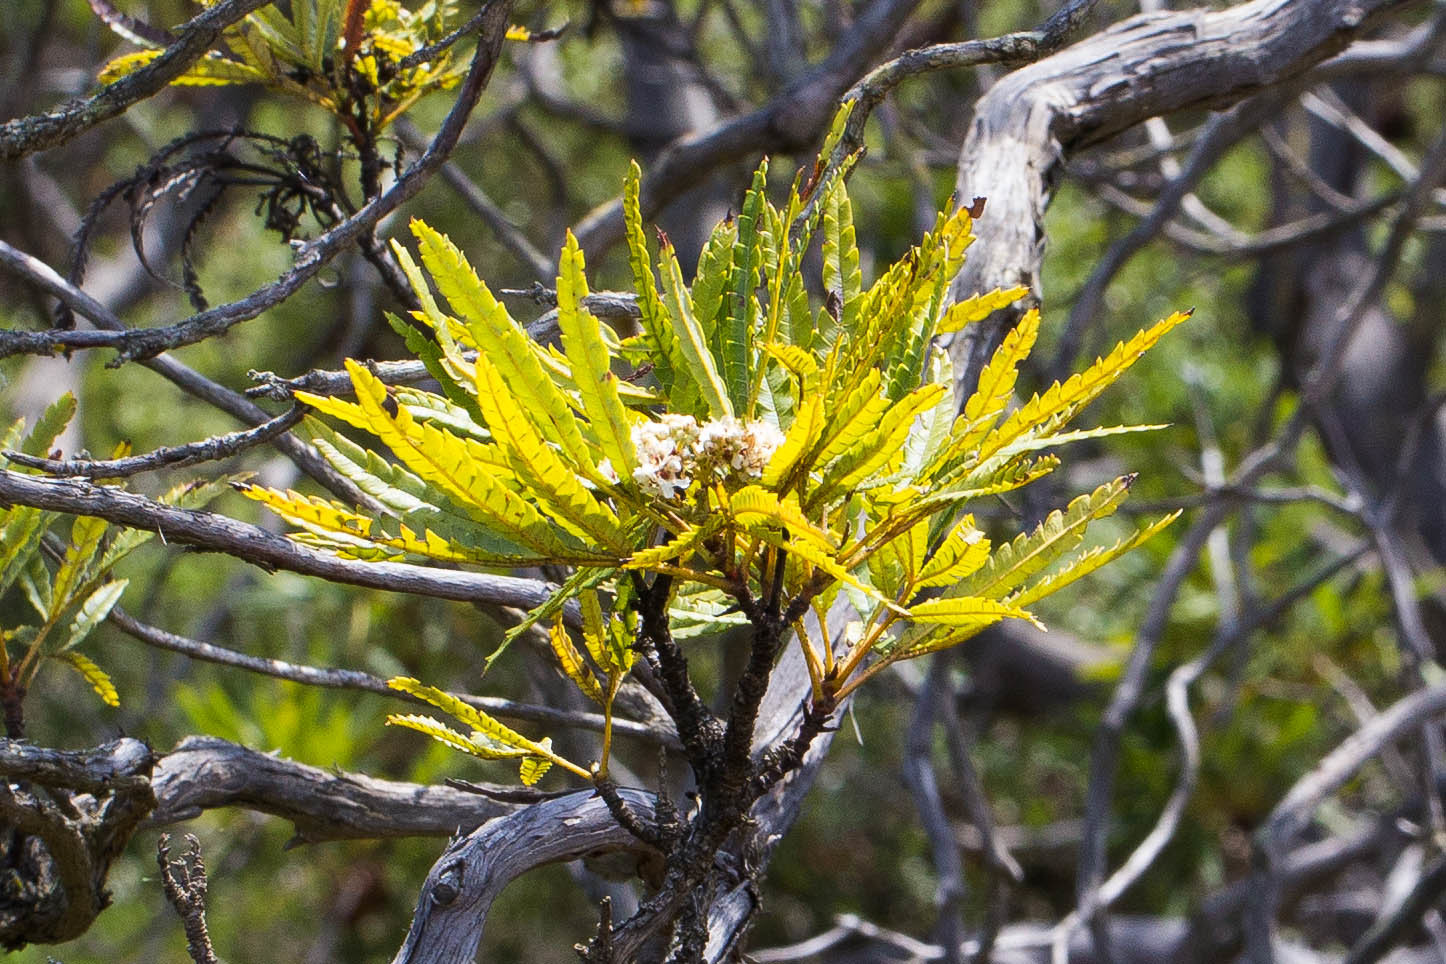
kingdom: Plantae
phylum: Tracheophyta
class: Magnoliopsida
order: Rosales
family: Rosaceae
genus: Lyonothamnus
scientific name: Lyonothamnus floribundus
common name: Catalina ironwood
